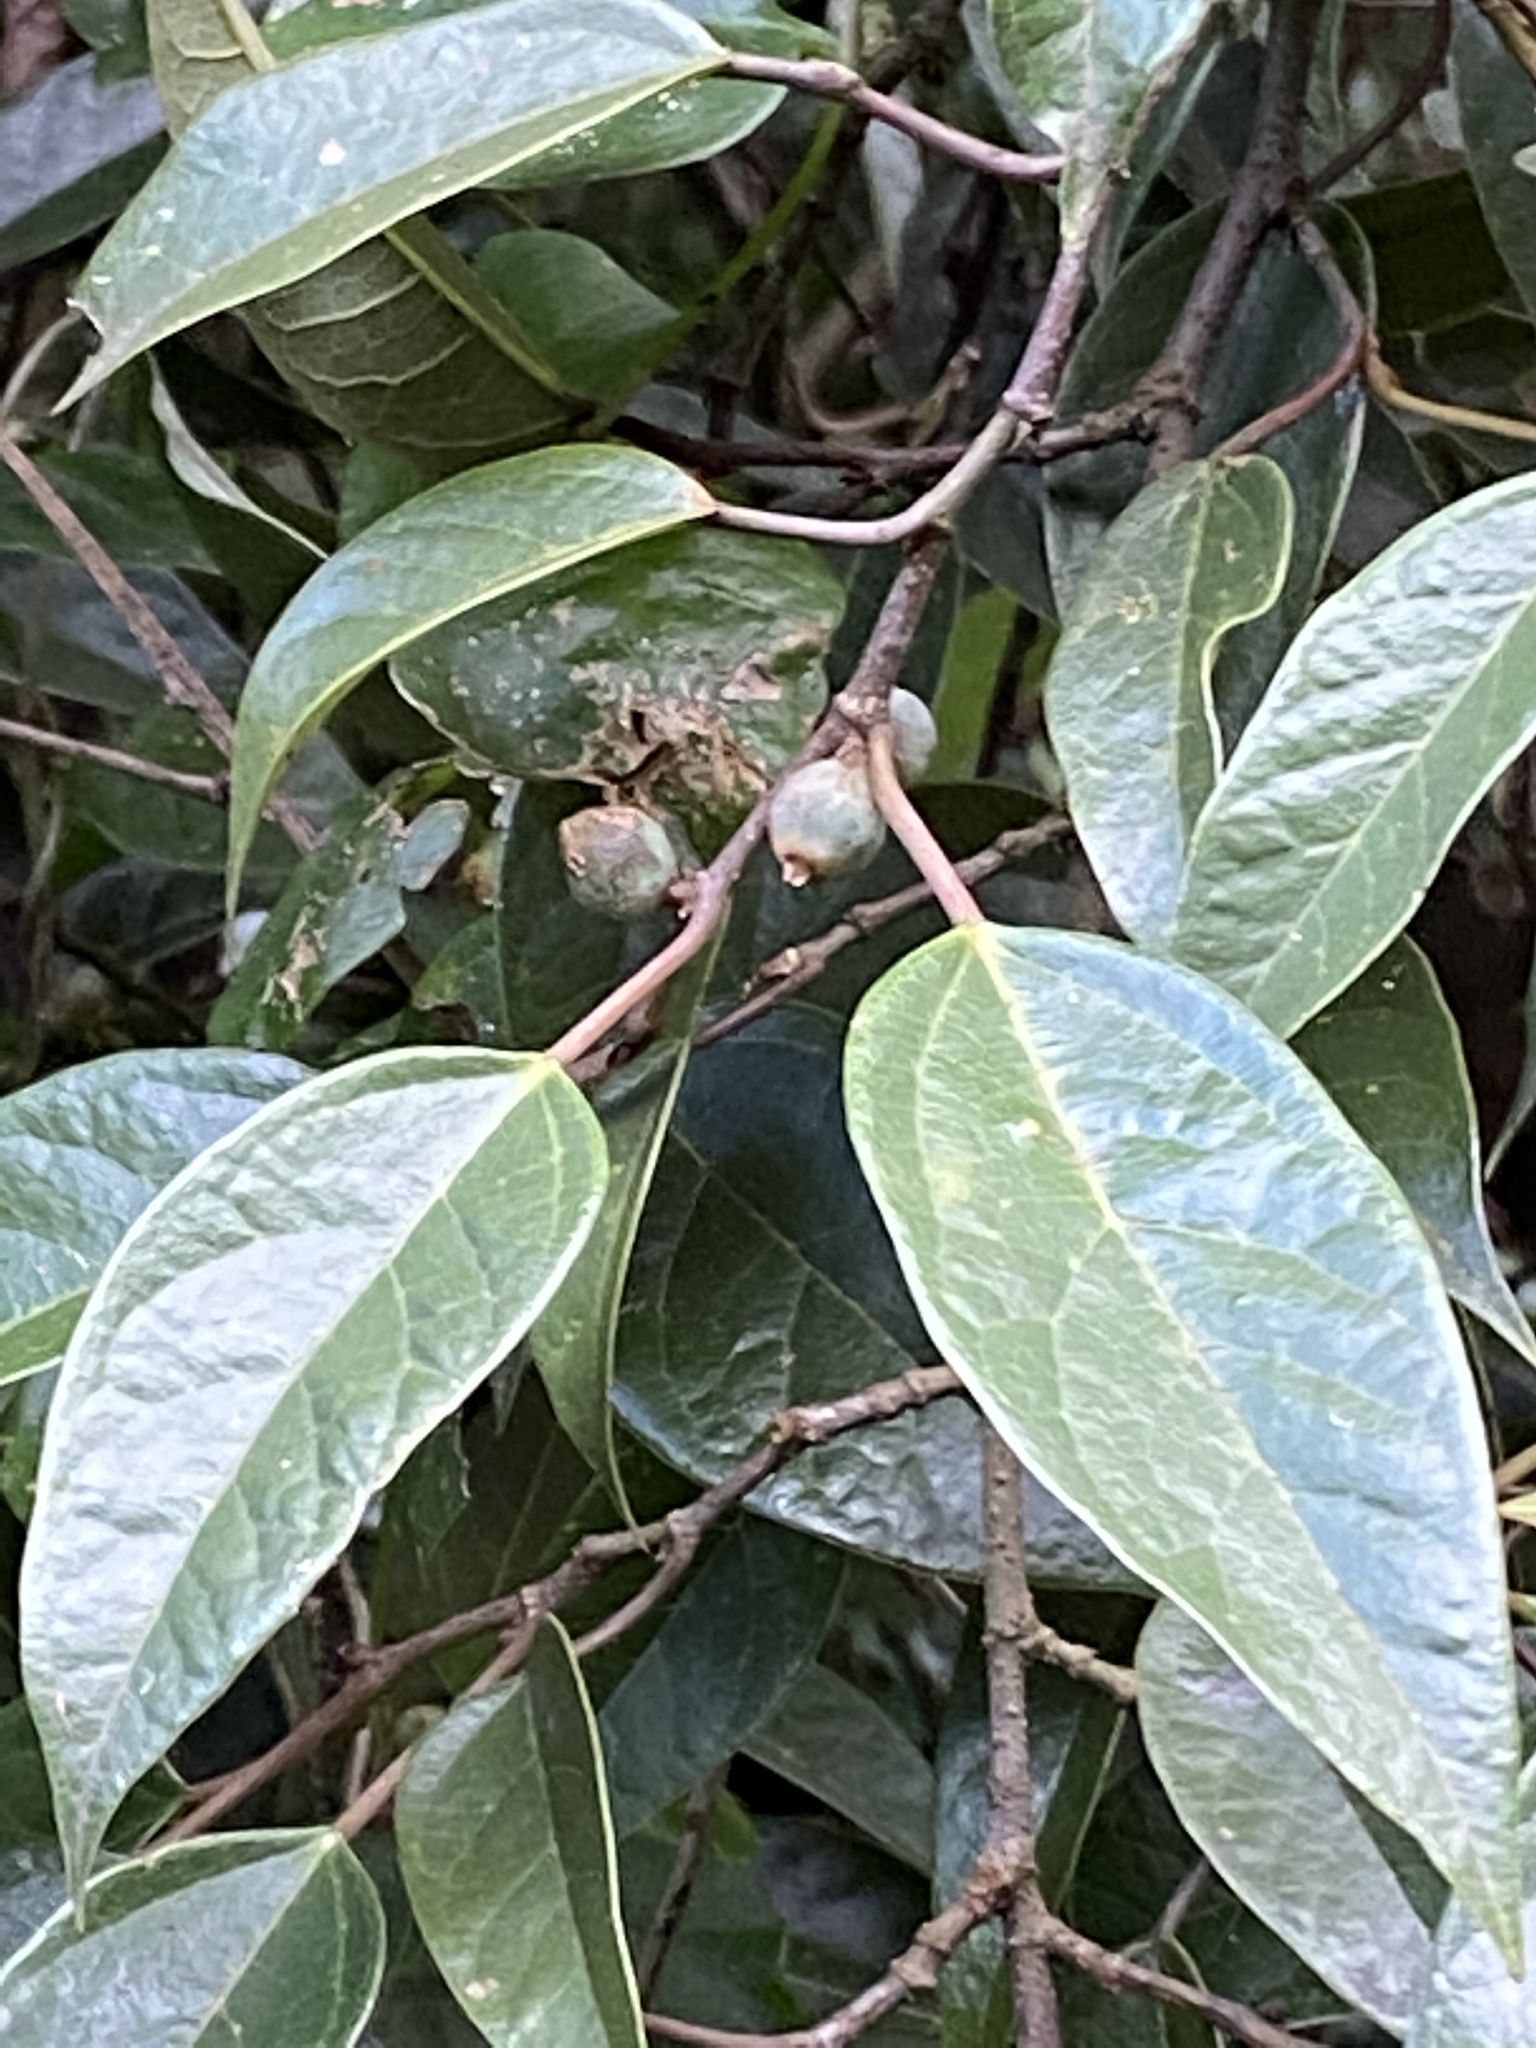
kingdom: Plantae
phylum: Tracheophyta
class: Magnoliopsida
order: Rosales
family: Moraceae
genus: Ficus
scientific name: Ficus sarmentosa
